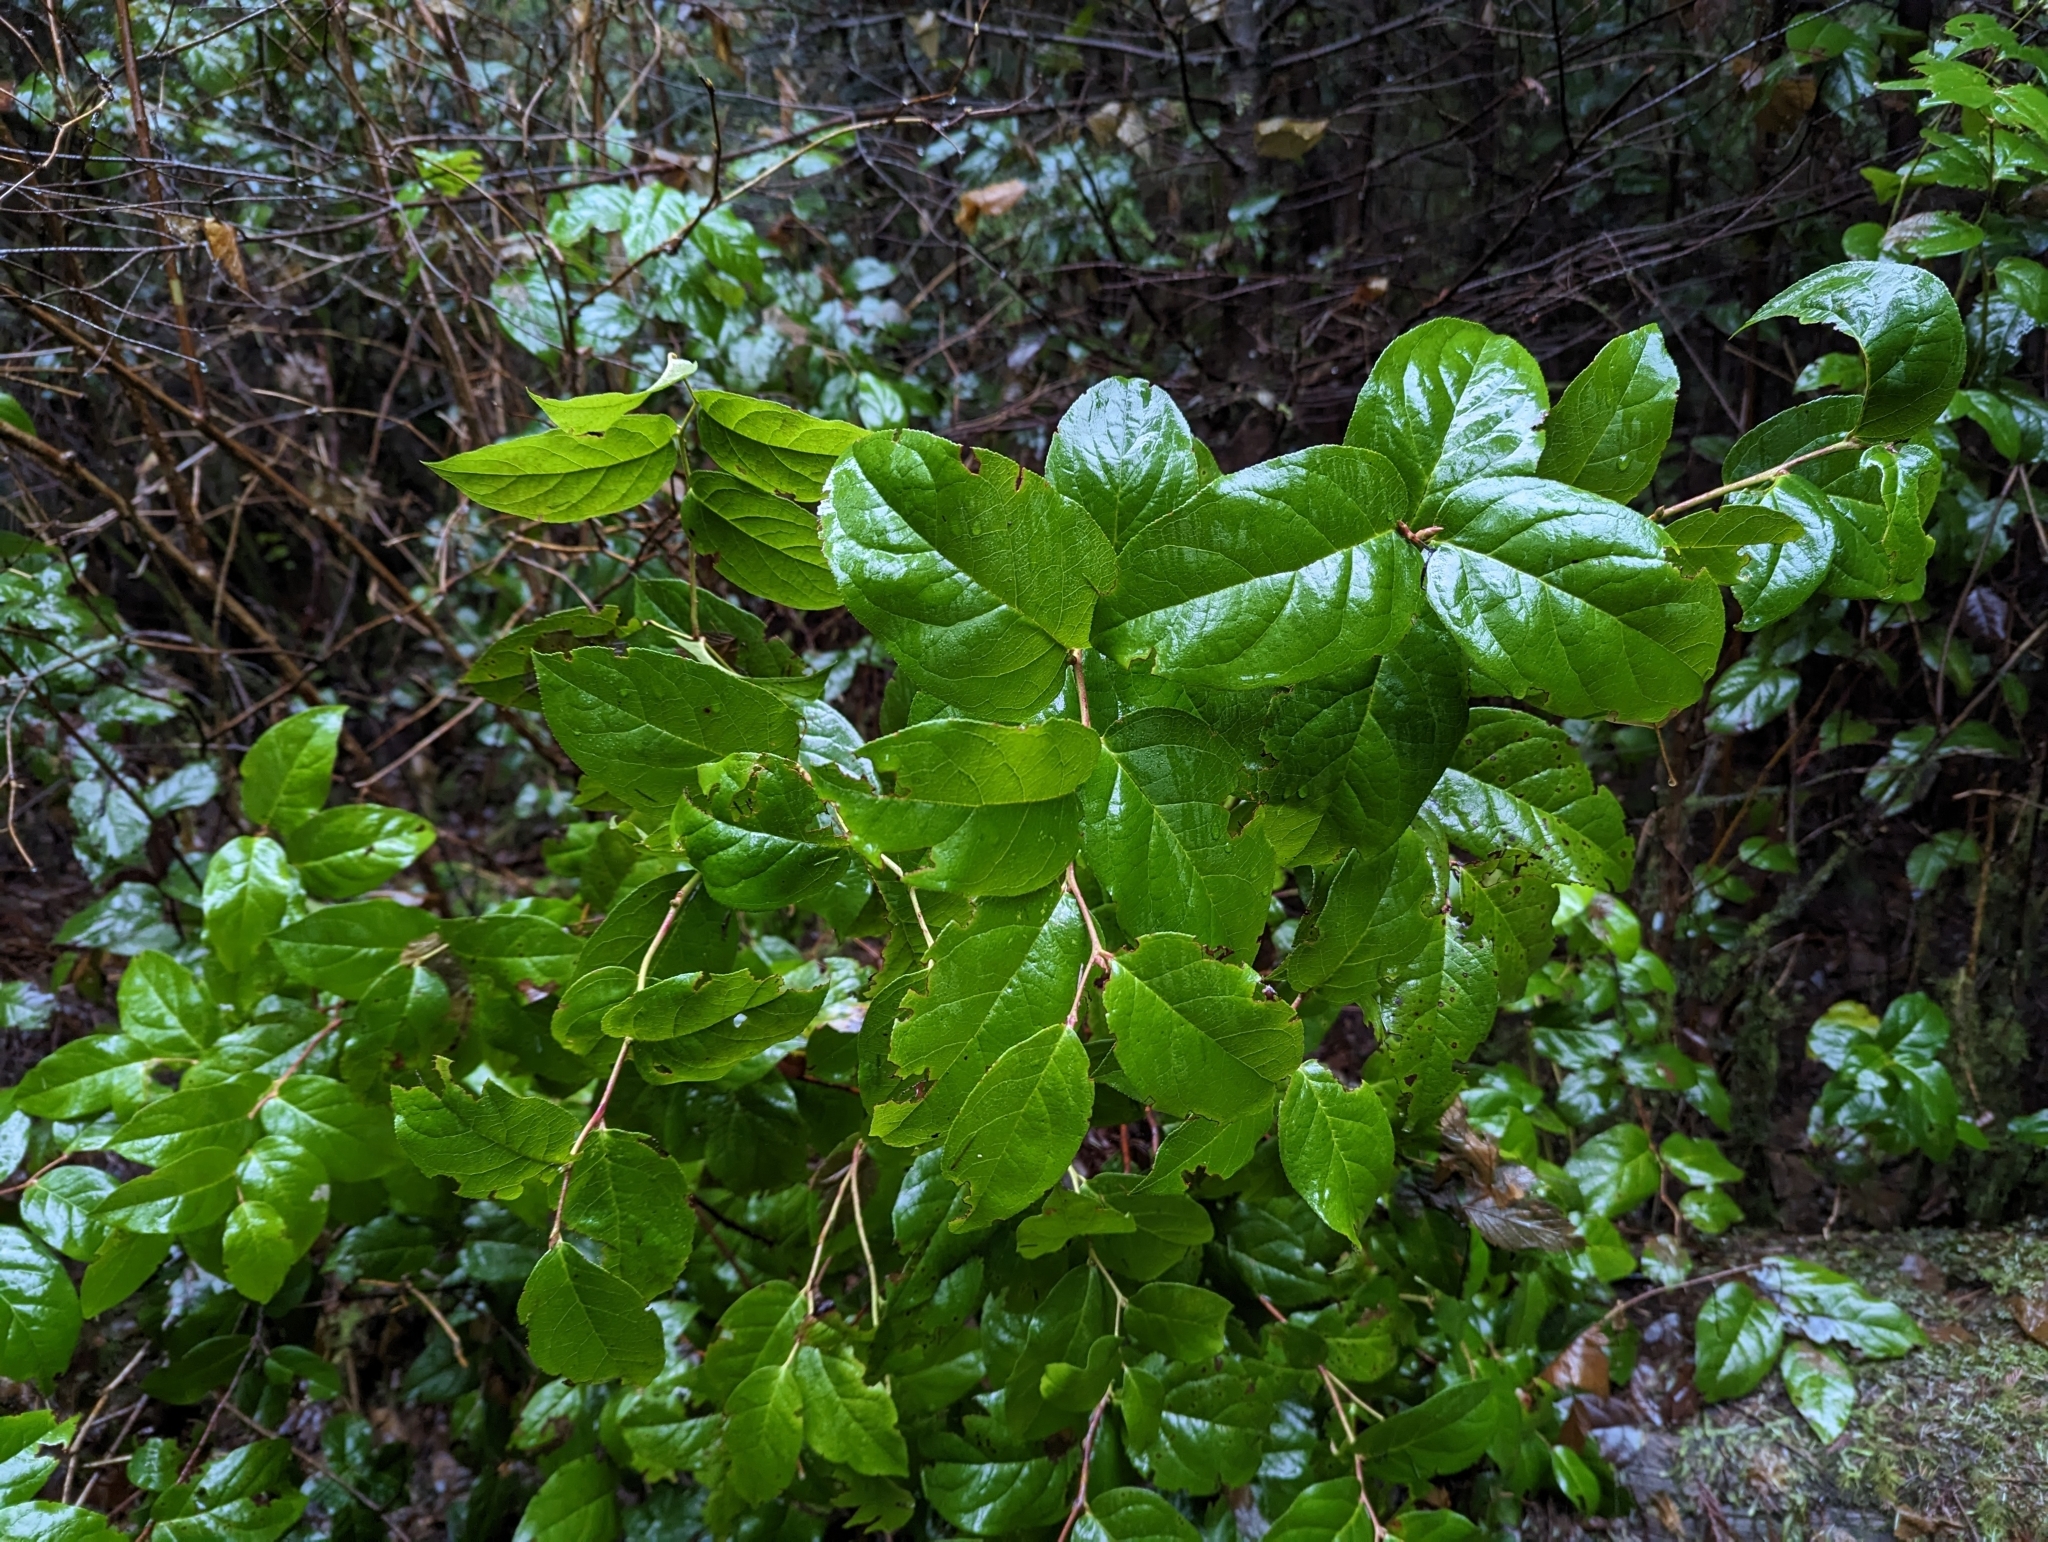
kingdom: Plantae
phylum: Tracheophyta
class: Magnoliopsida
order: Ericales
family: Ericaceae
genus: Gaultheria
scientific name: Gaultheria shallon
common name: Shallon
